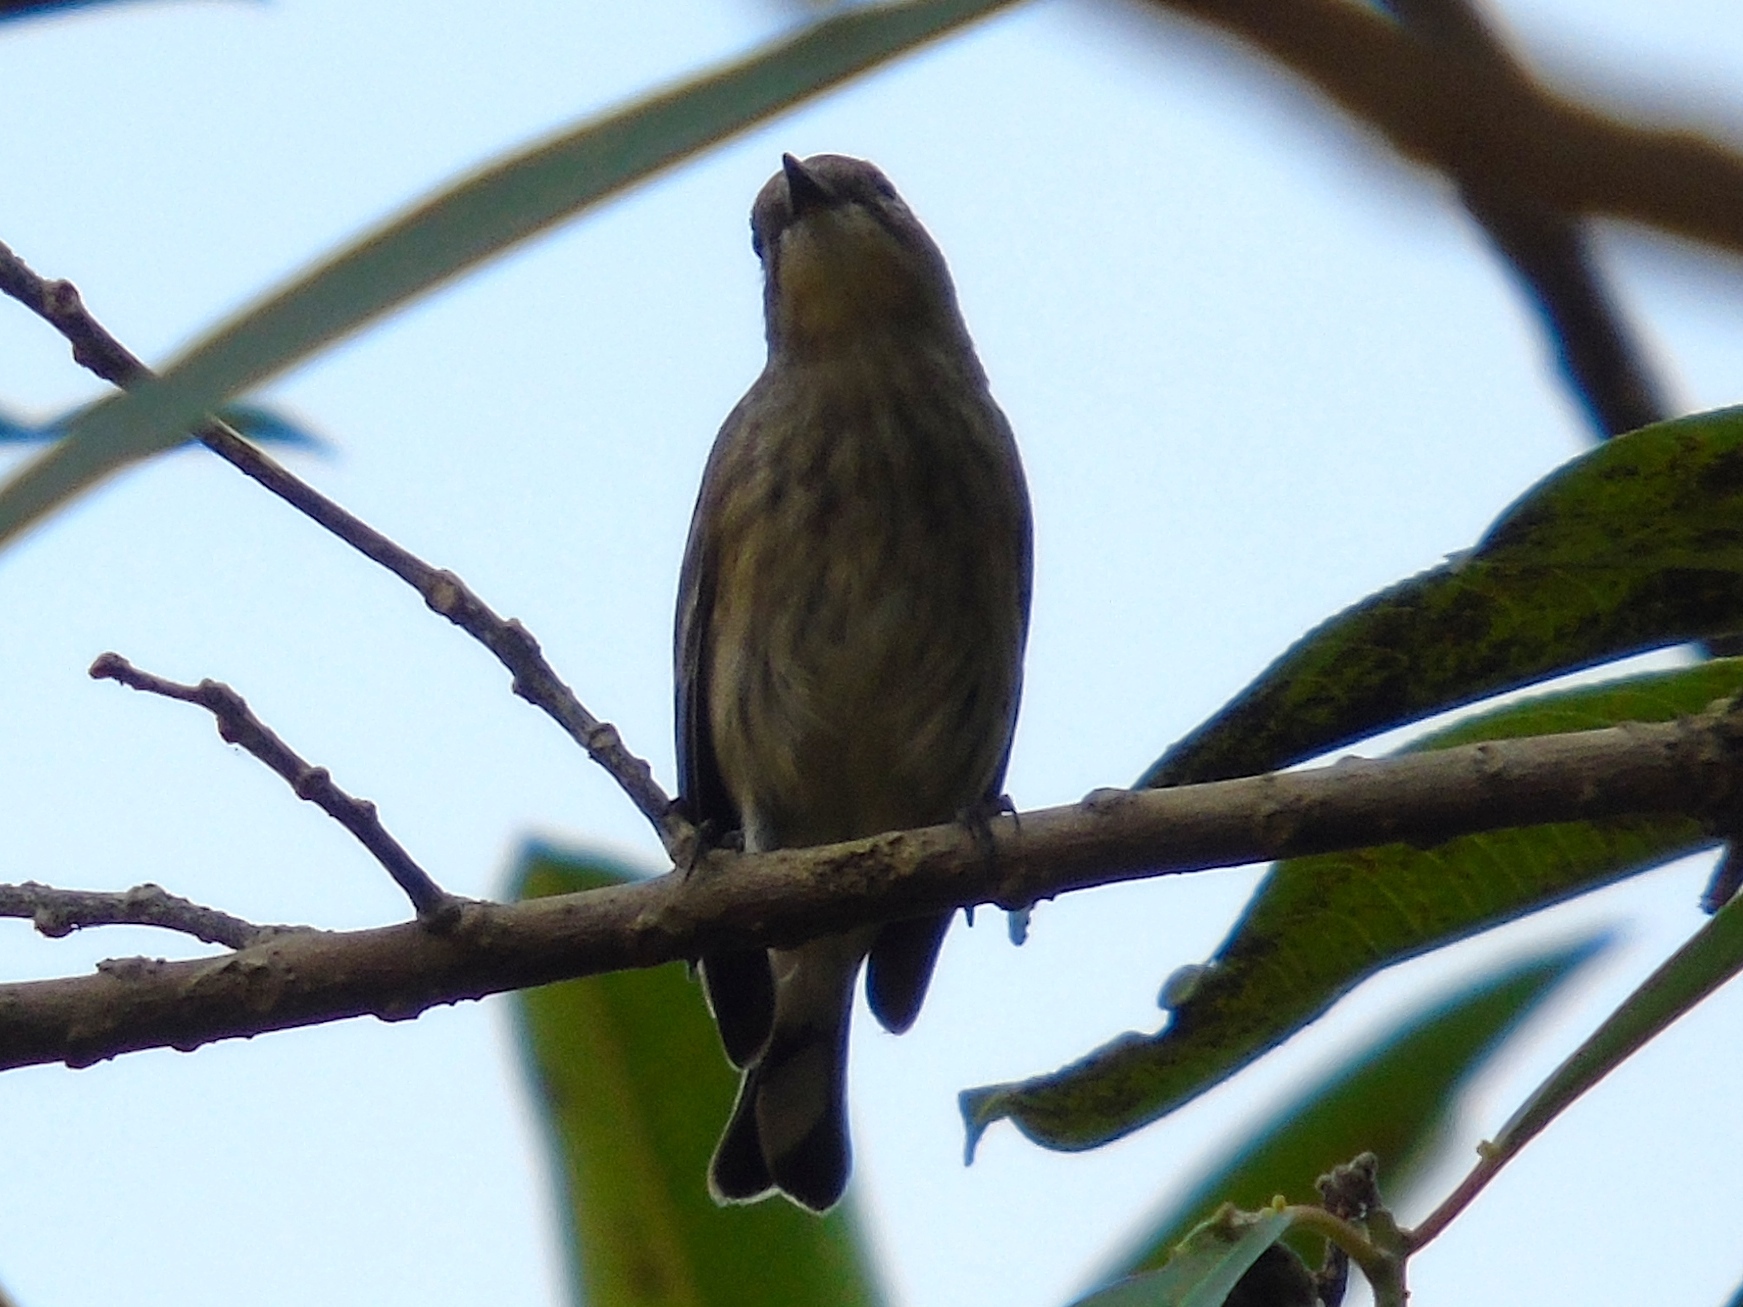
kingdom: Animalia
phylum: Chordata
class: Aves
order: Passeriformes
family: Parulidae
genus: Setophaga
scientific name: Setophaga coronata
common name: Myrtle warbler
